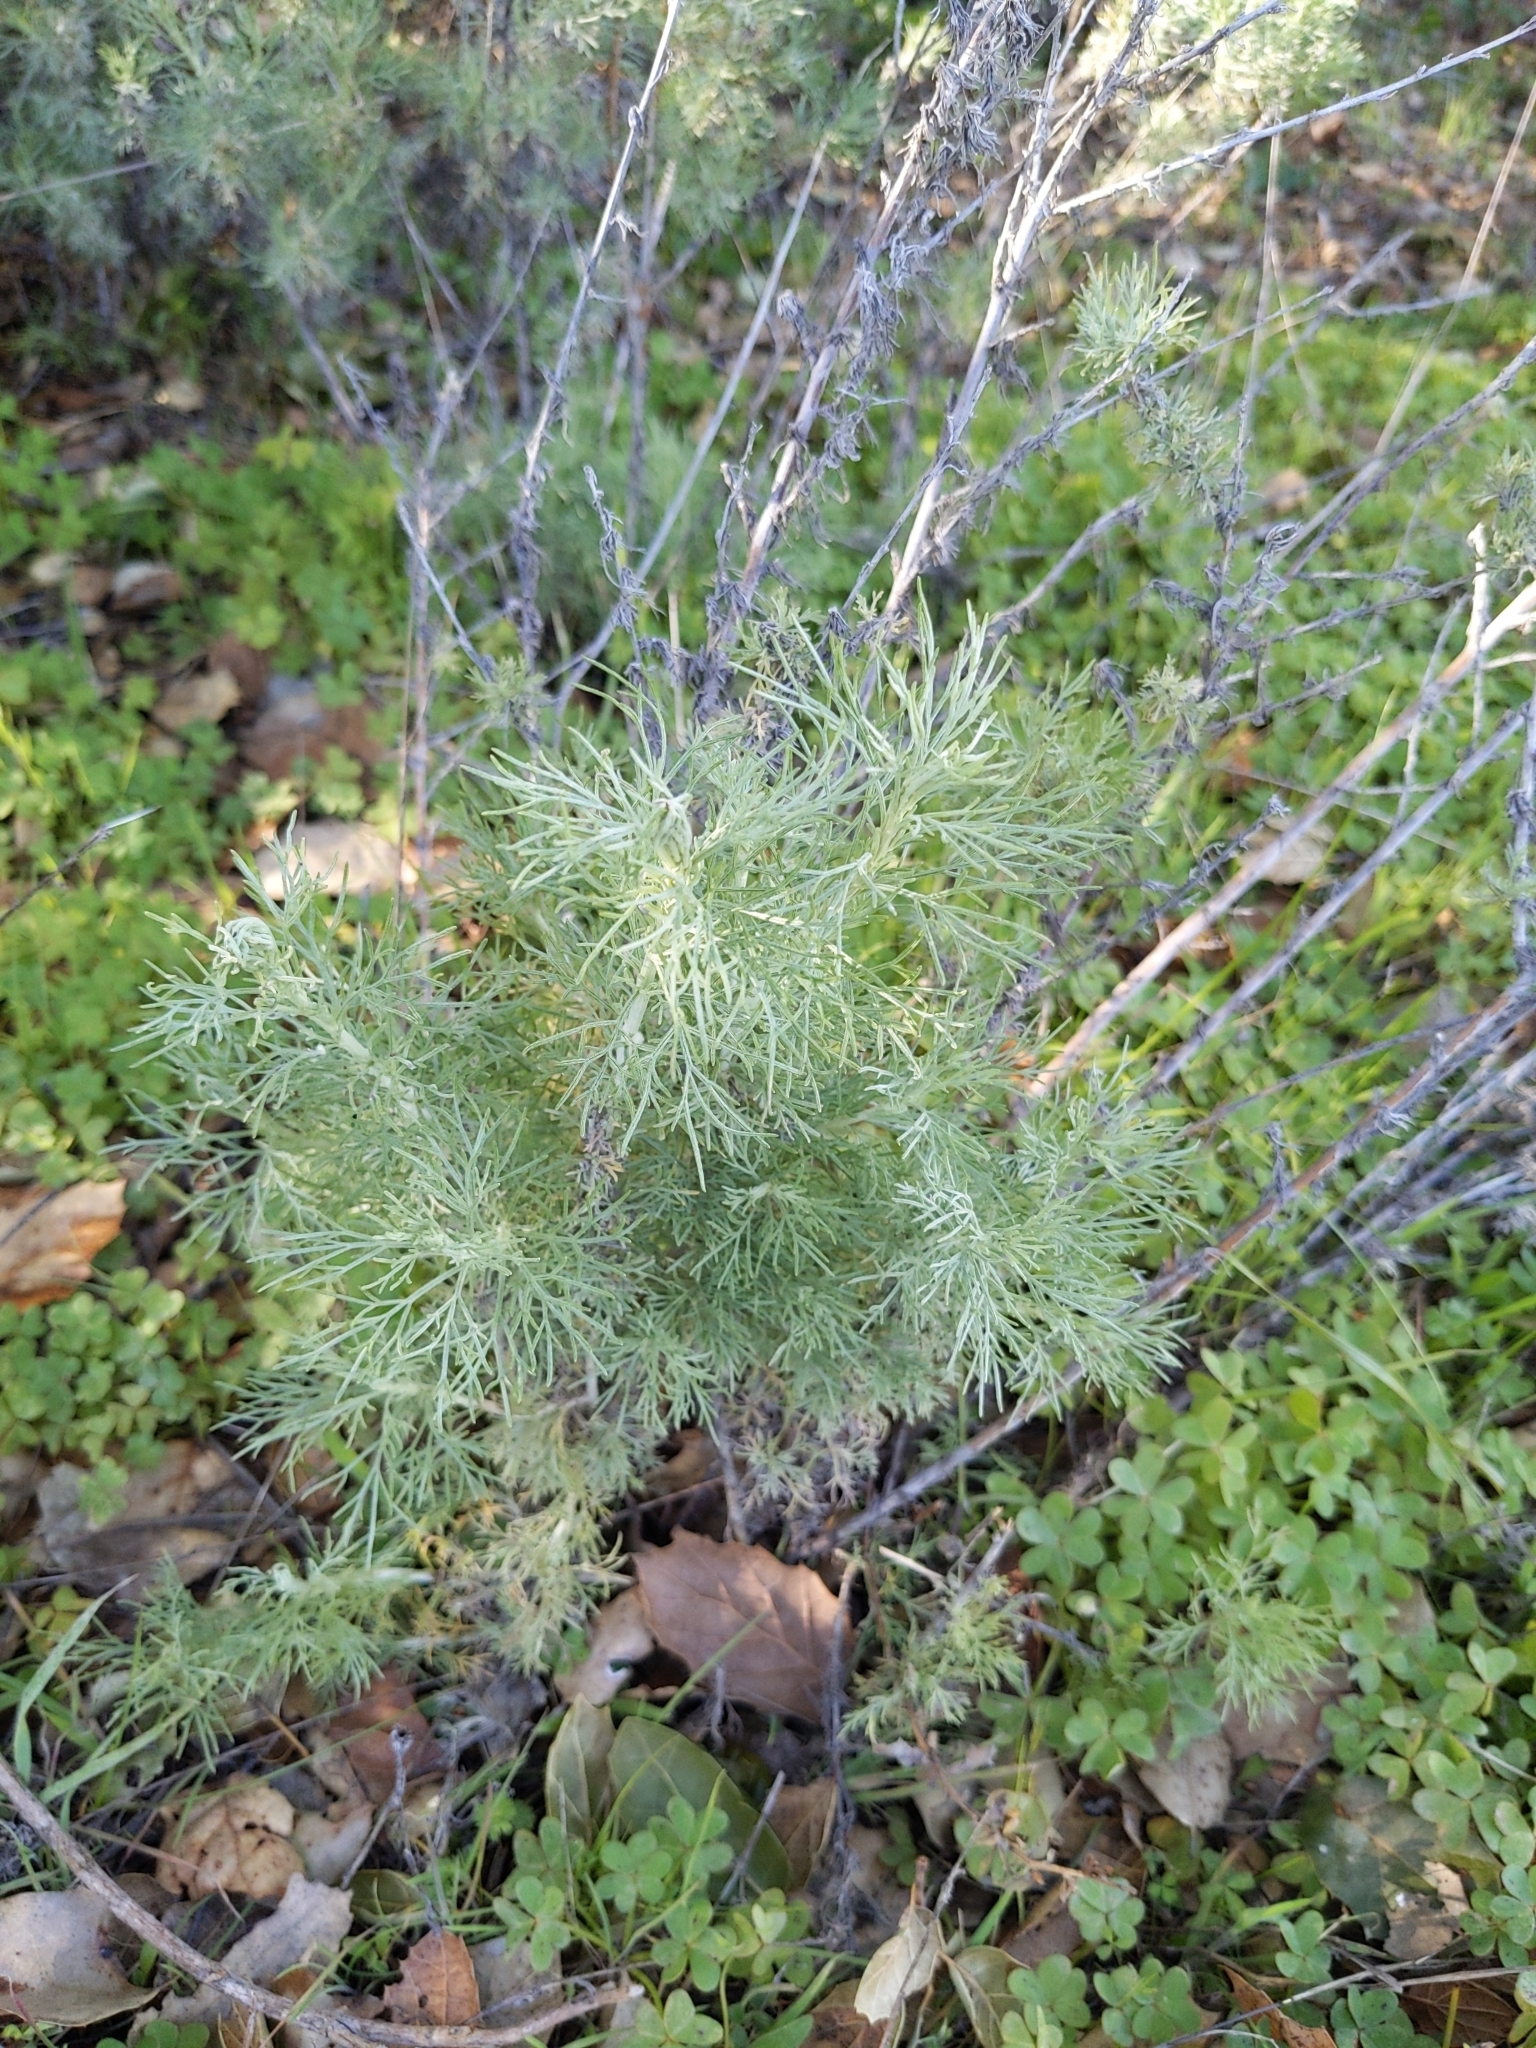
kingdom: Plantae
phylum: Tracheophyta
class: Magnoliopsida
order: Asterales
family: Asteraceae
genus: Artemisia
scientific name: Artemisia californica
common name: California sagebrush
